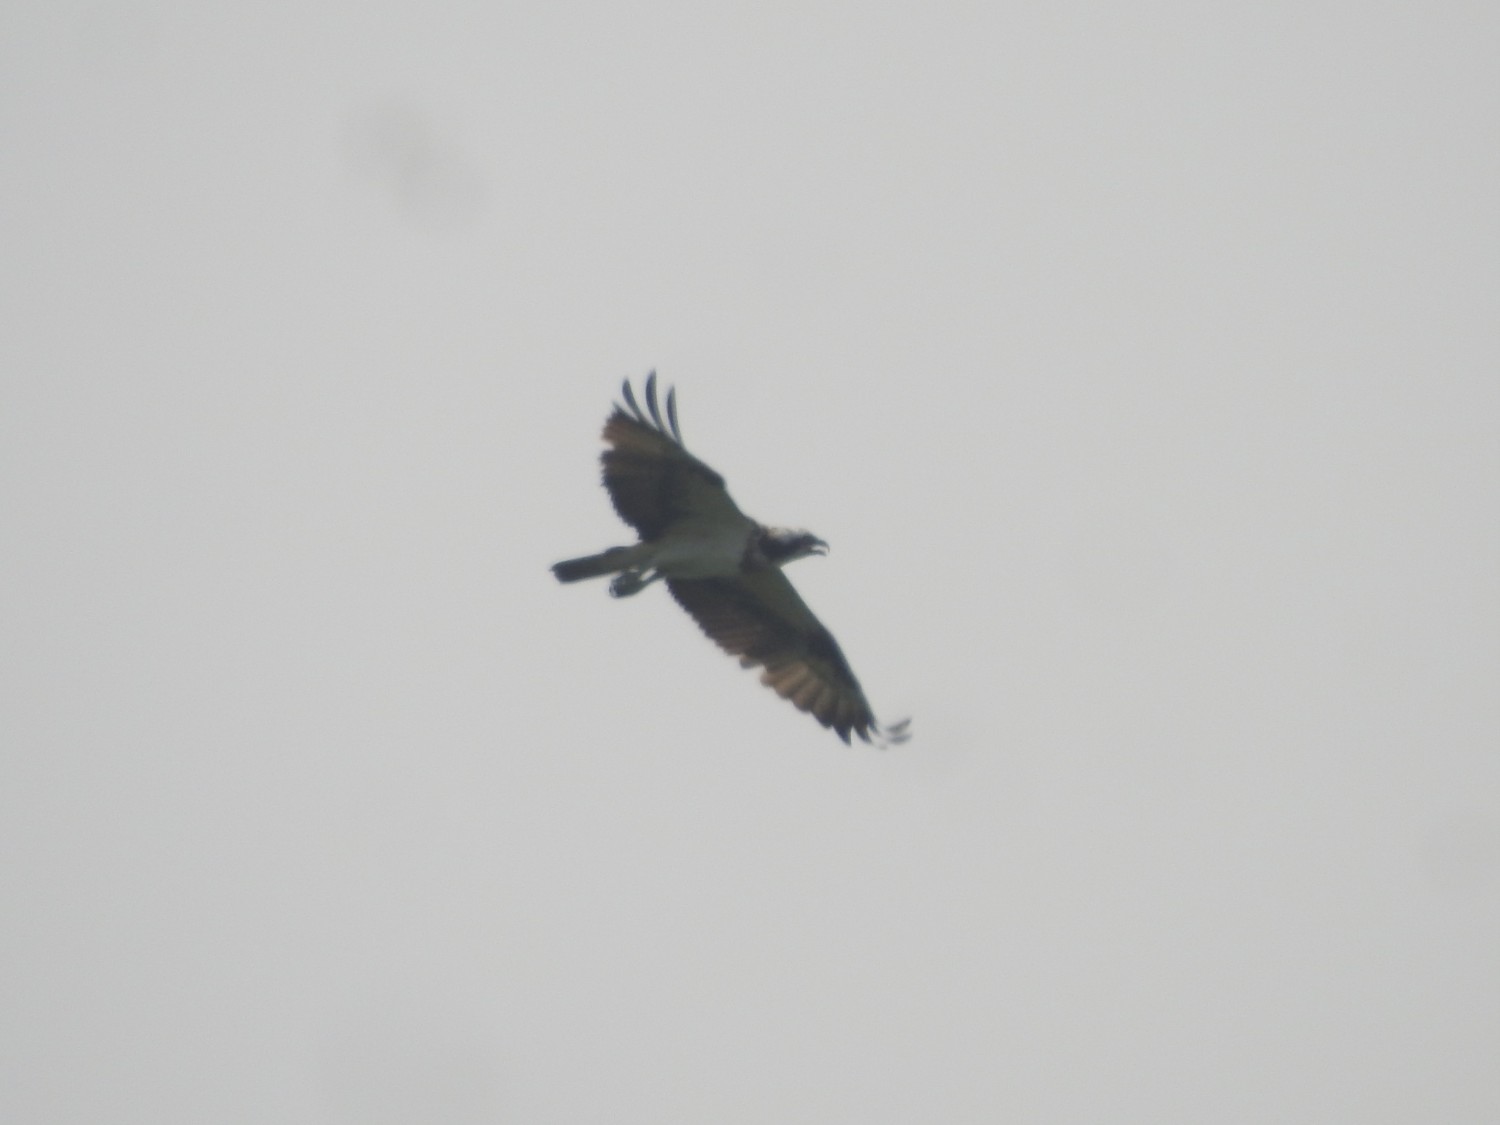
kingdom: Animalia
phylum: Chordata
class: Aves
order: Accipitriformes
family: Pandionidae
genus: Pandion
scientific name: Pandion haliaetus
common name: Osprey
